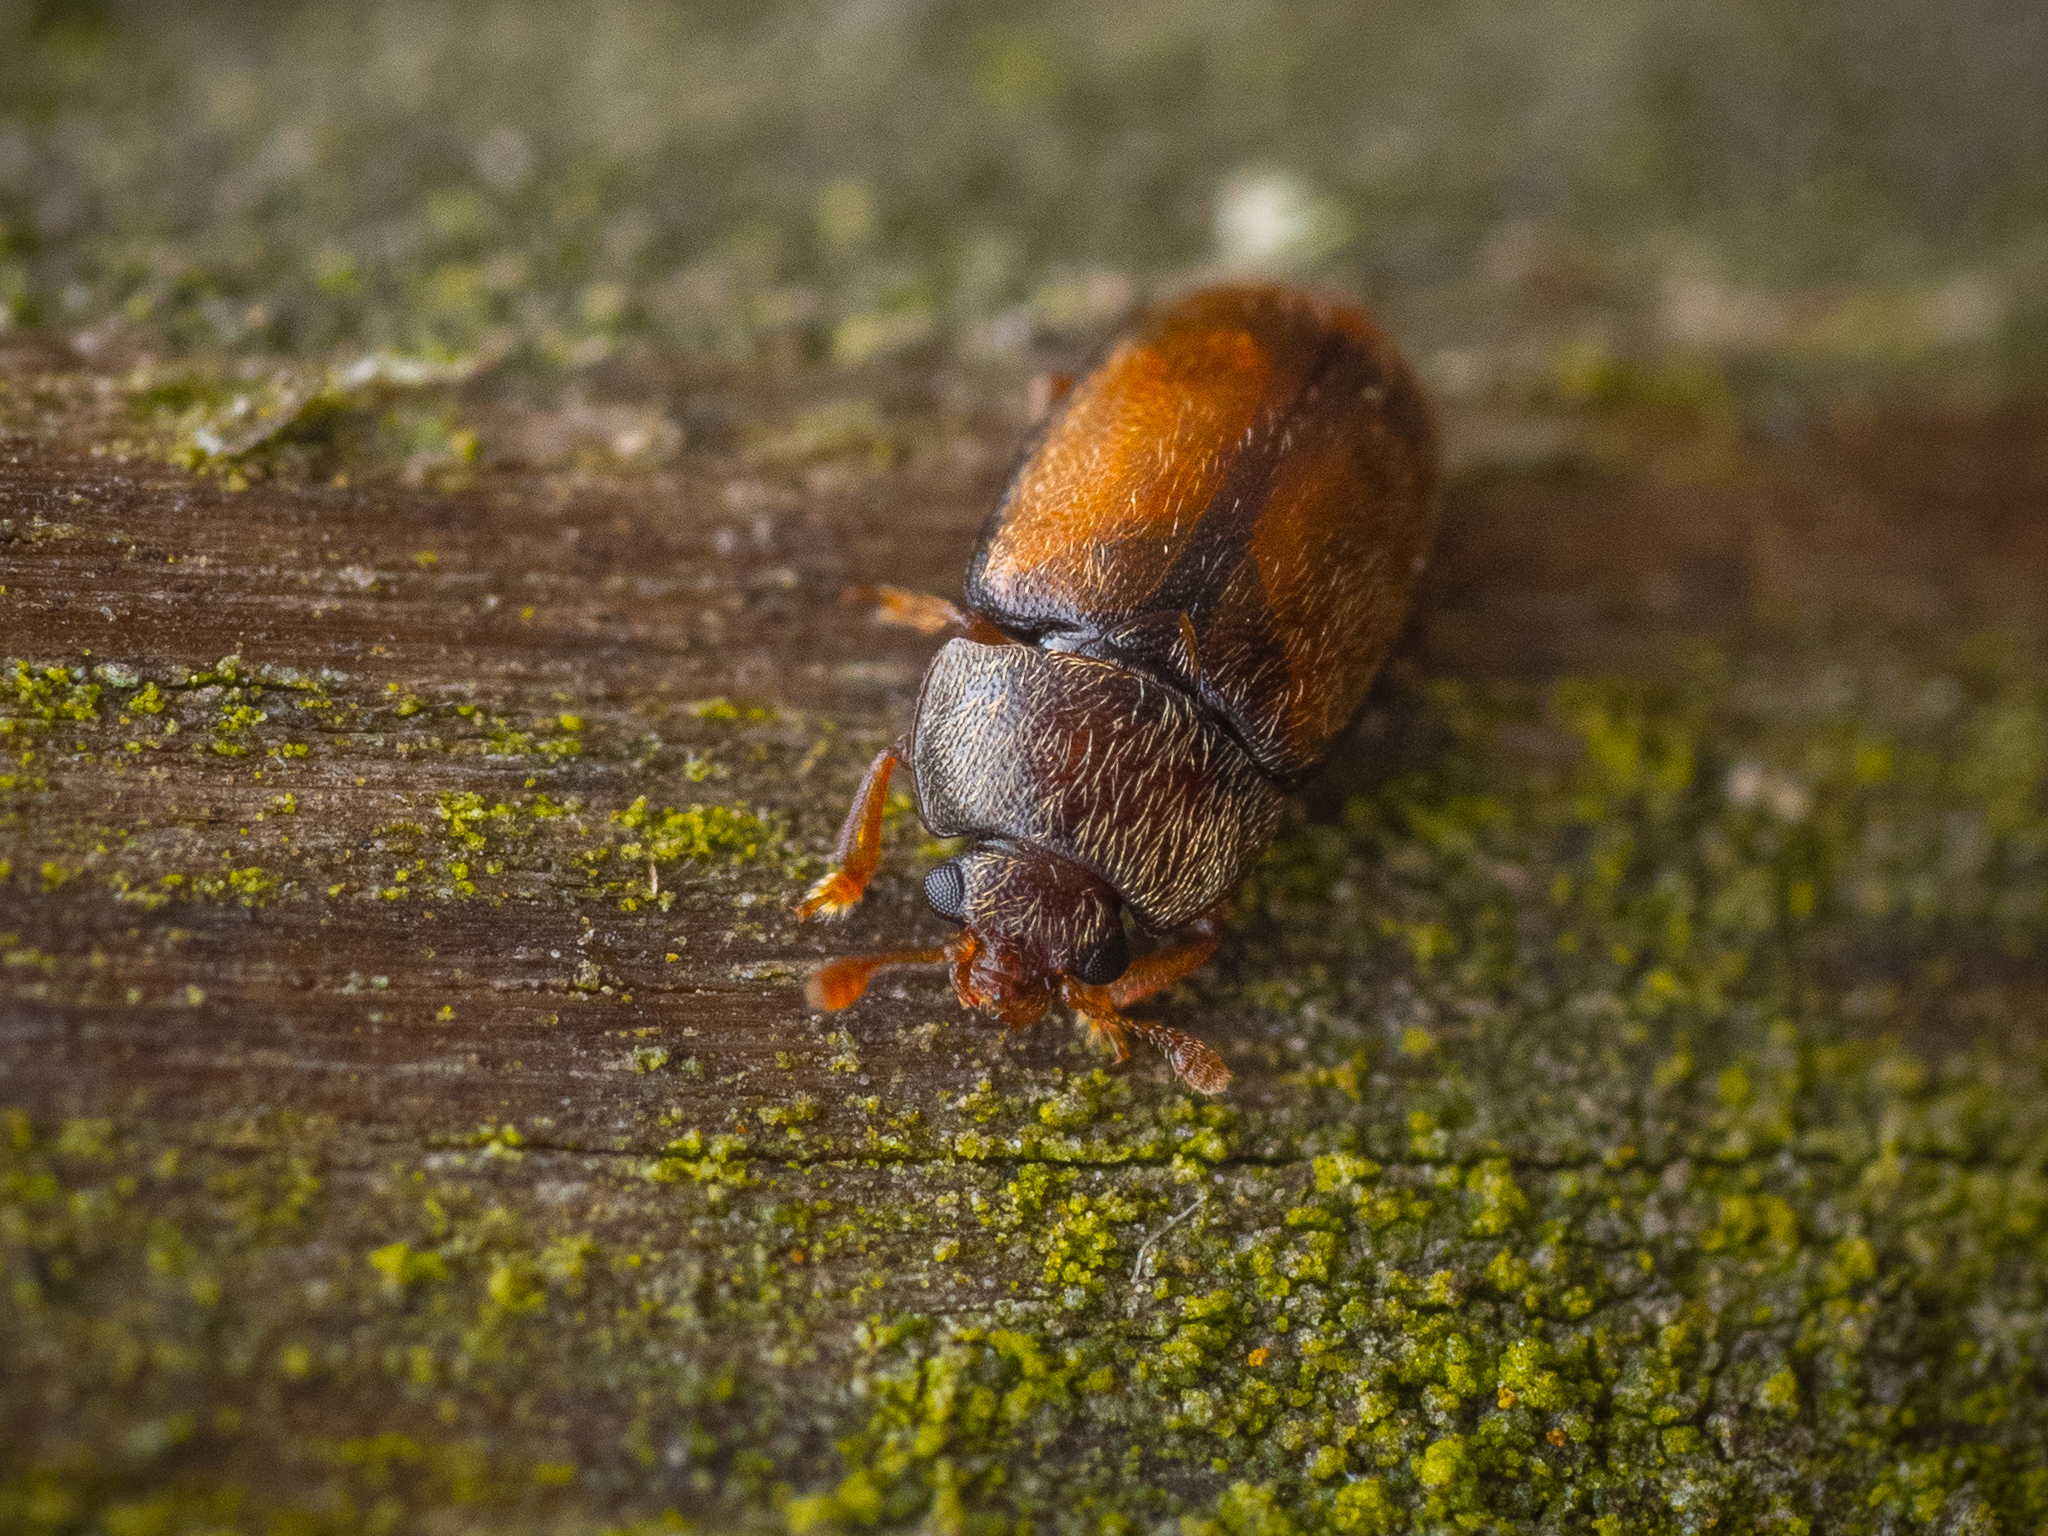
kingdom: Animalia
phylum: Arthropoda
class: Insecta
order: Coleoptera
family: Nitidulidae
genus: Epuraea
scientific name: Epuraea melanocephala
